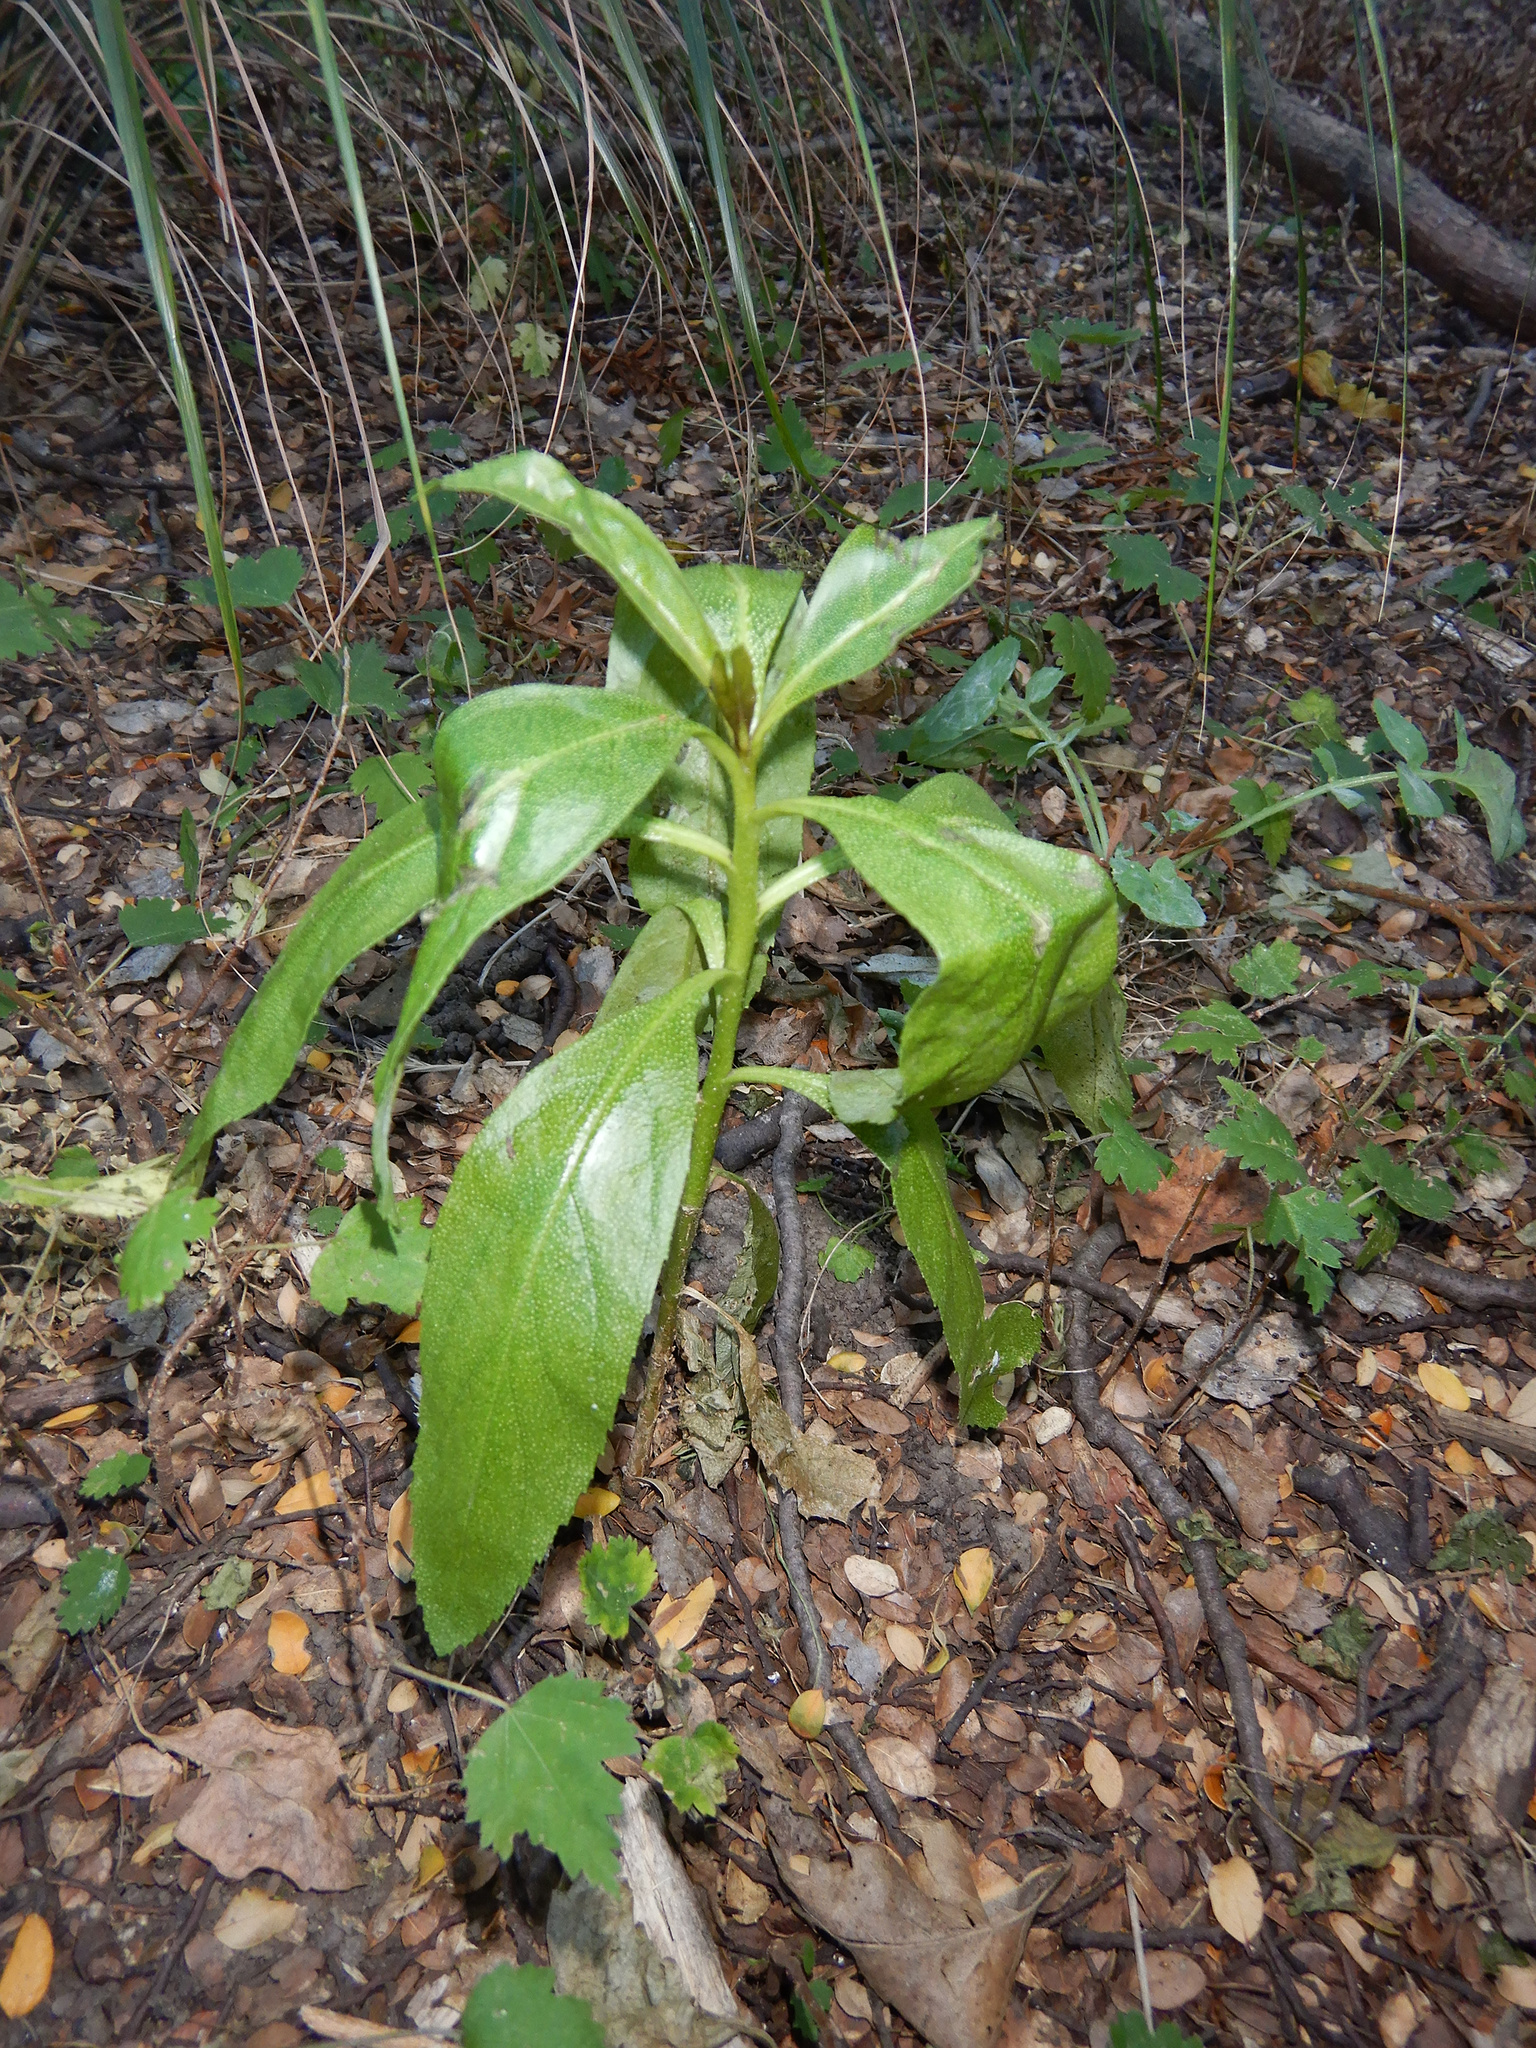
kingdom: Plantae
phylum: Tracheophyta
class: Magnoliopsida
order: Lamiales
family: Scrophulariaceae
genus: Myoporum
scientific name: Myoporum laetum
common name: Ngaio tree
